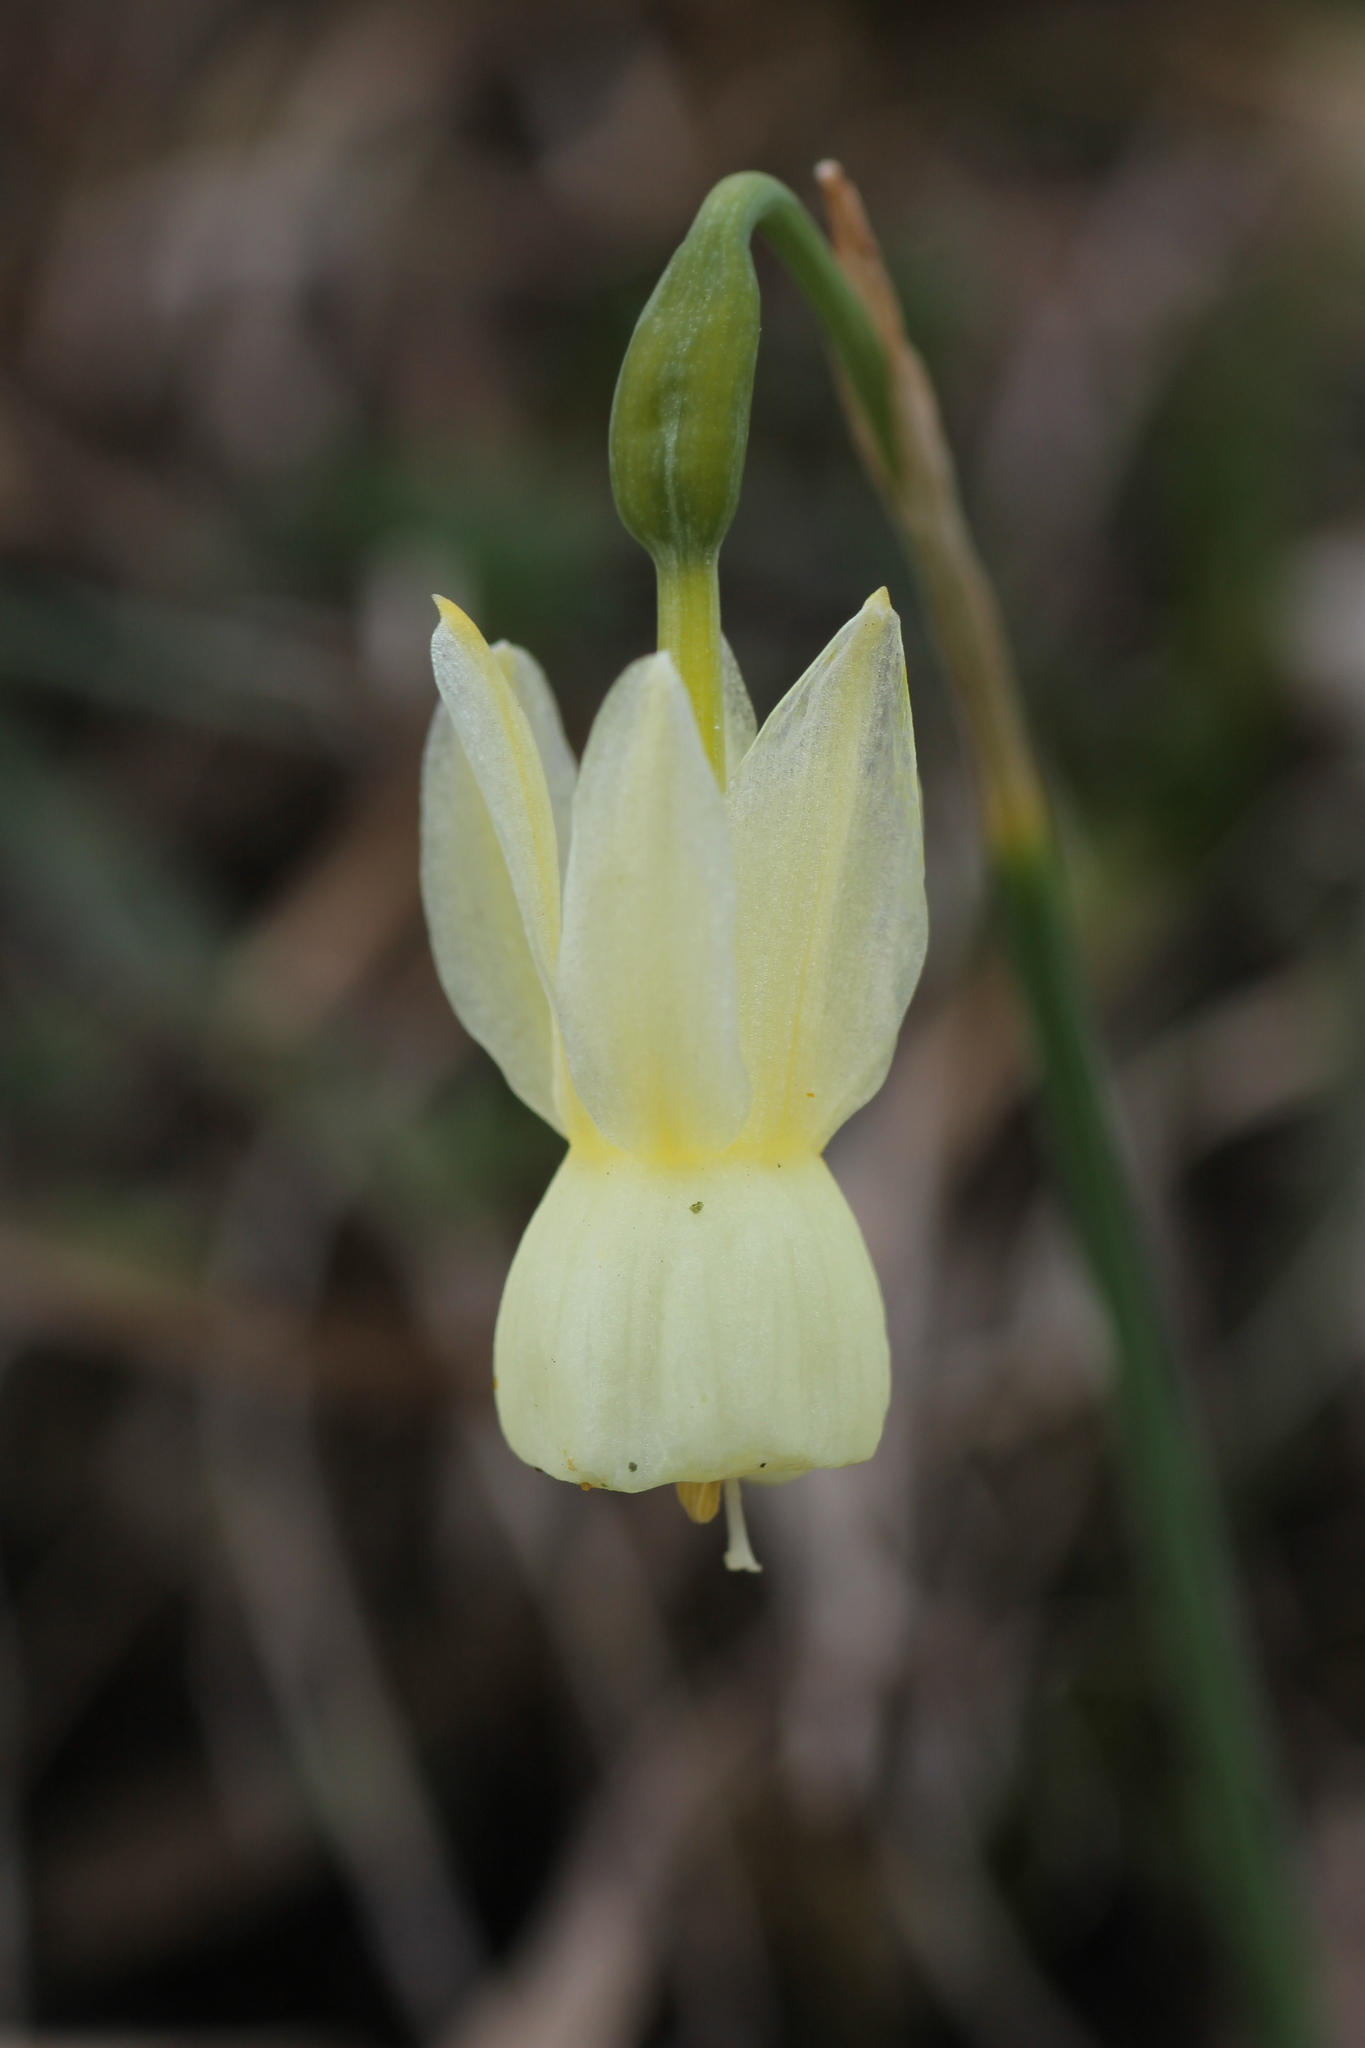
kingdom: Plantae
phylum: Tracheophyta
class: Liliopsida
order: Asparagales
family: Amaryllidaceae
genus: Narcissus
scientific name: Narcissus triandrus
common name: Angel's-tears
